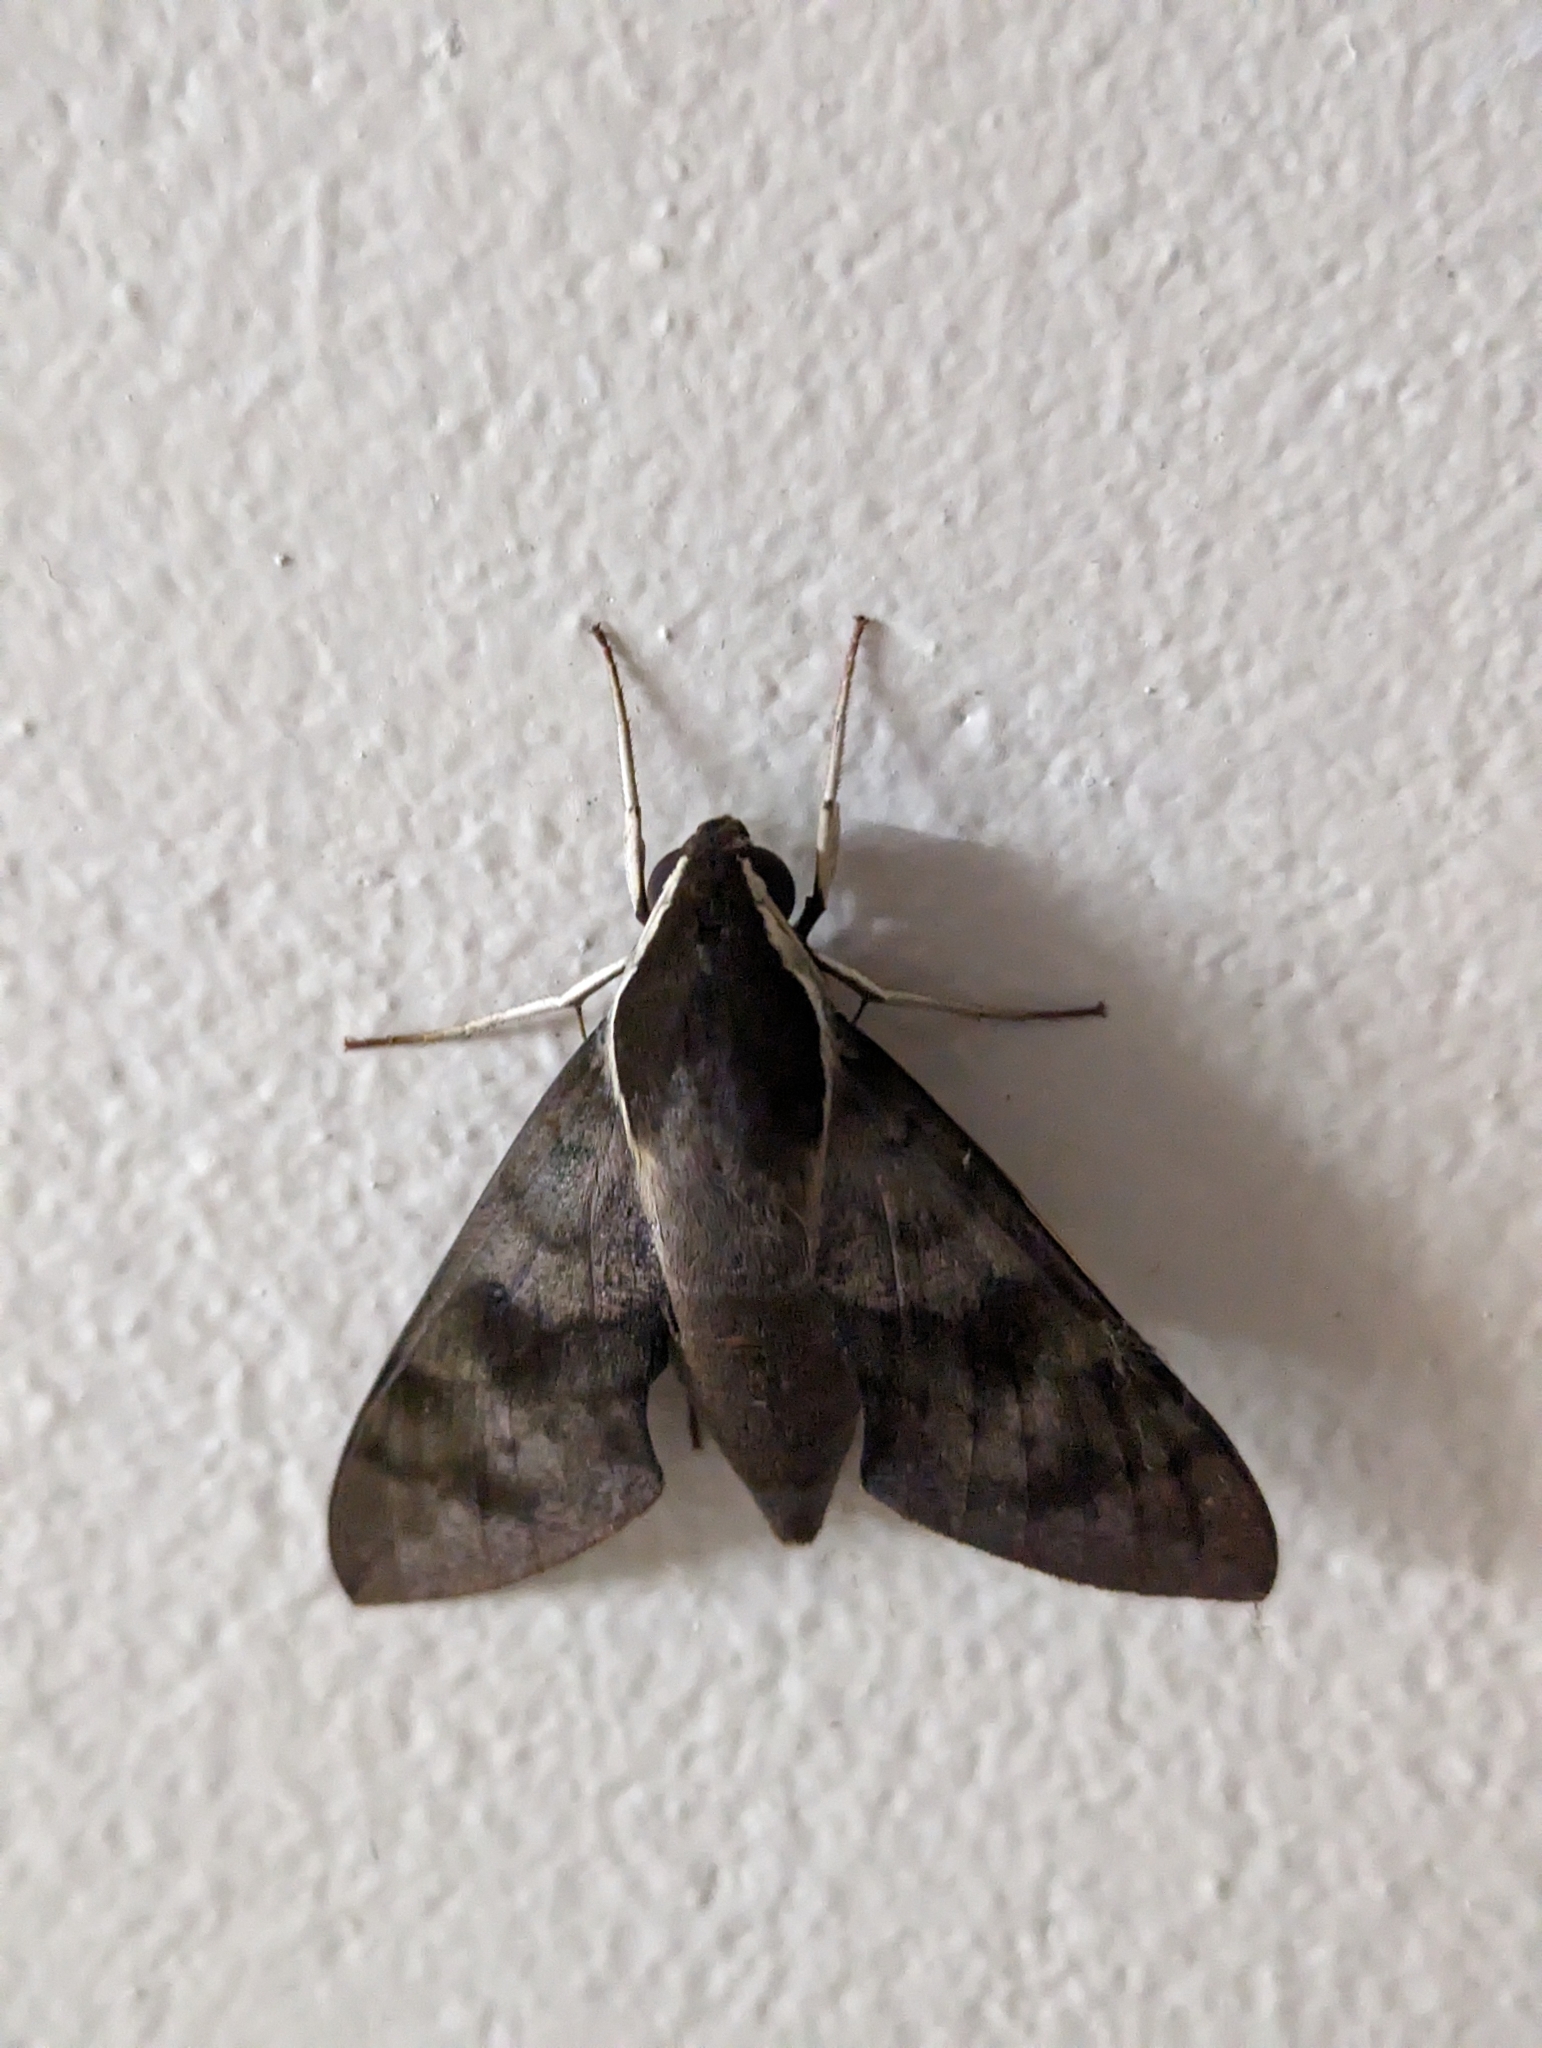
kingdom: Animalia
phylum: Arthropoda
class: Insecta
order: Lepidoptera
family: Sphingidae
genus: Gnathothlibus
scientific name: Gnathothlibus eras
